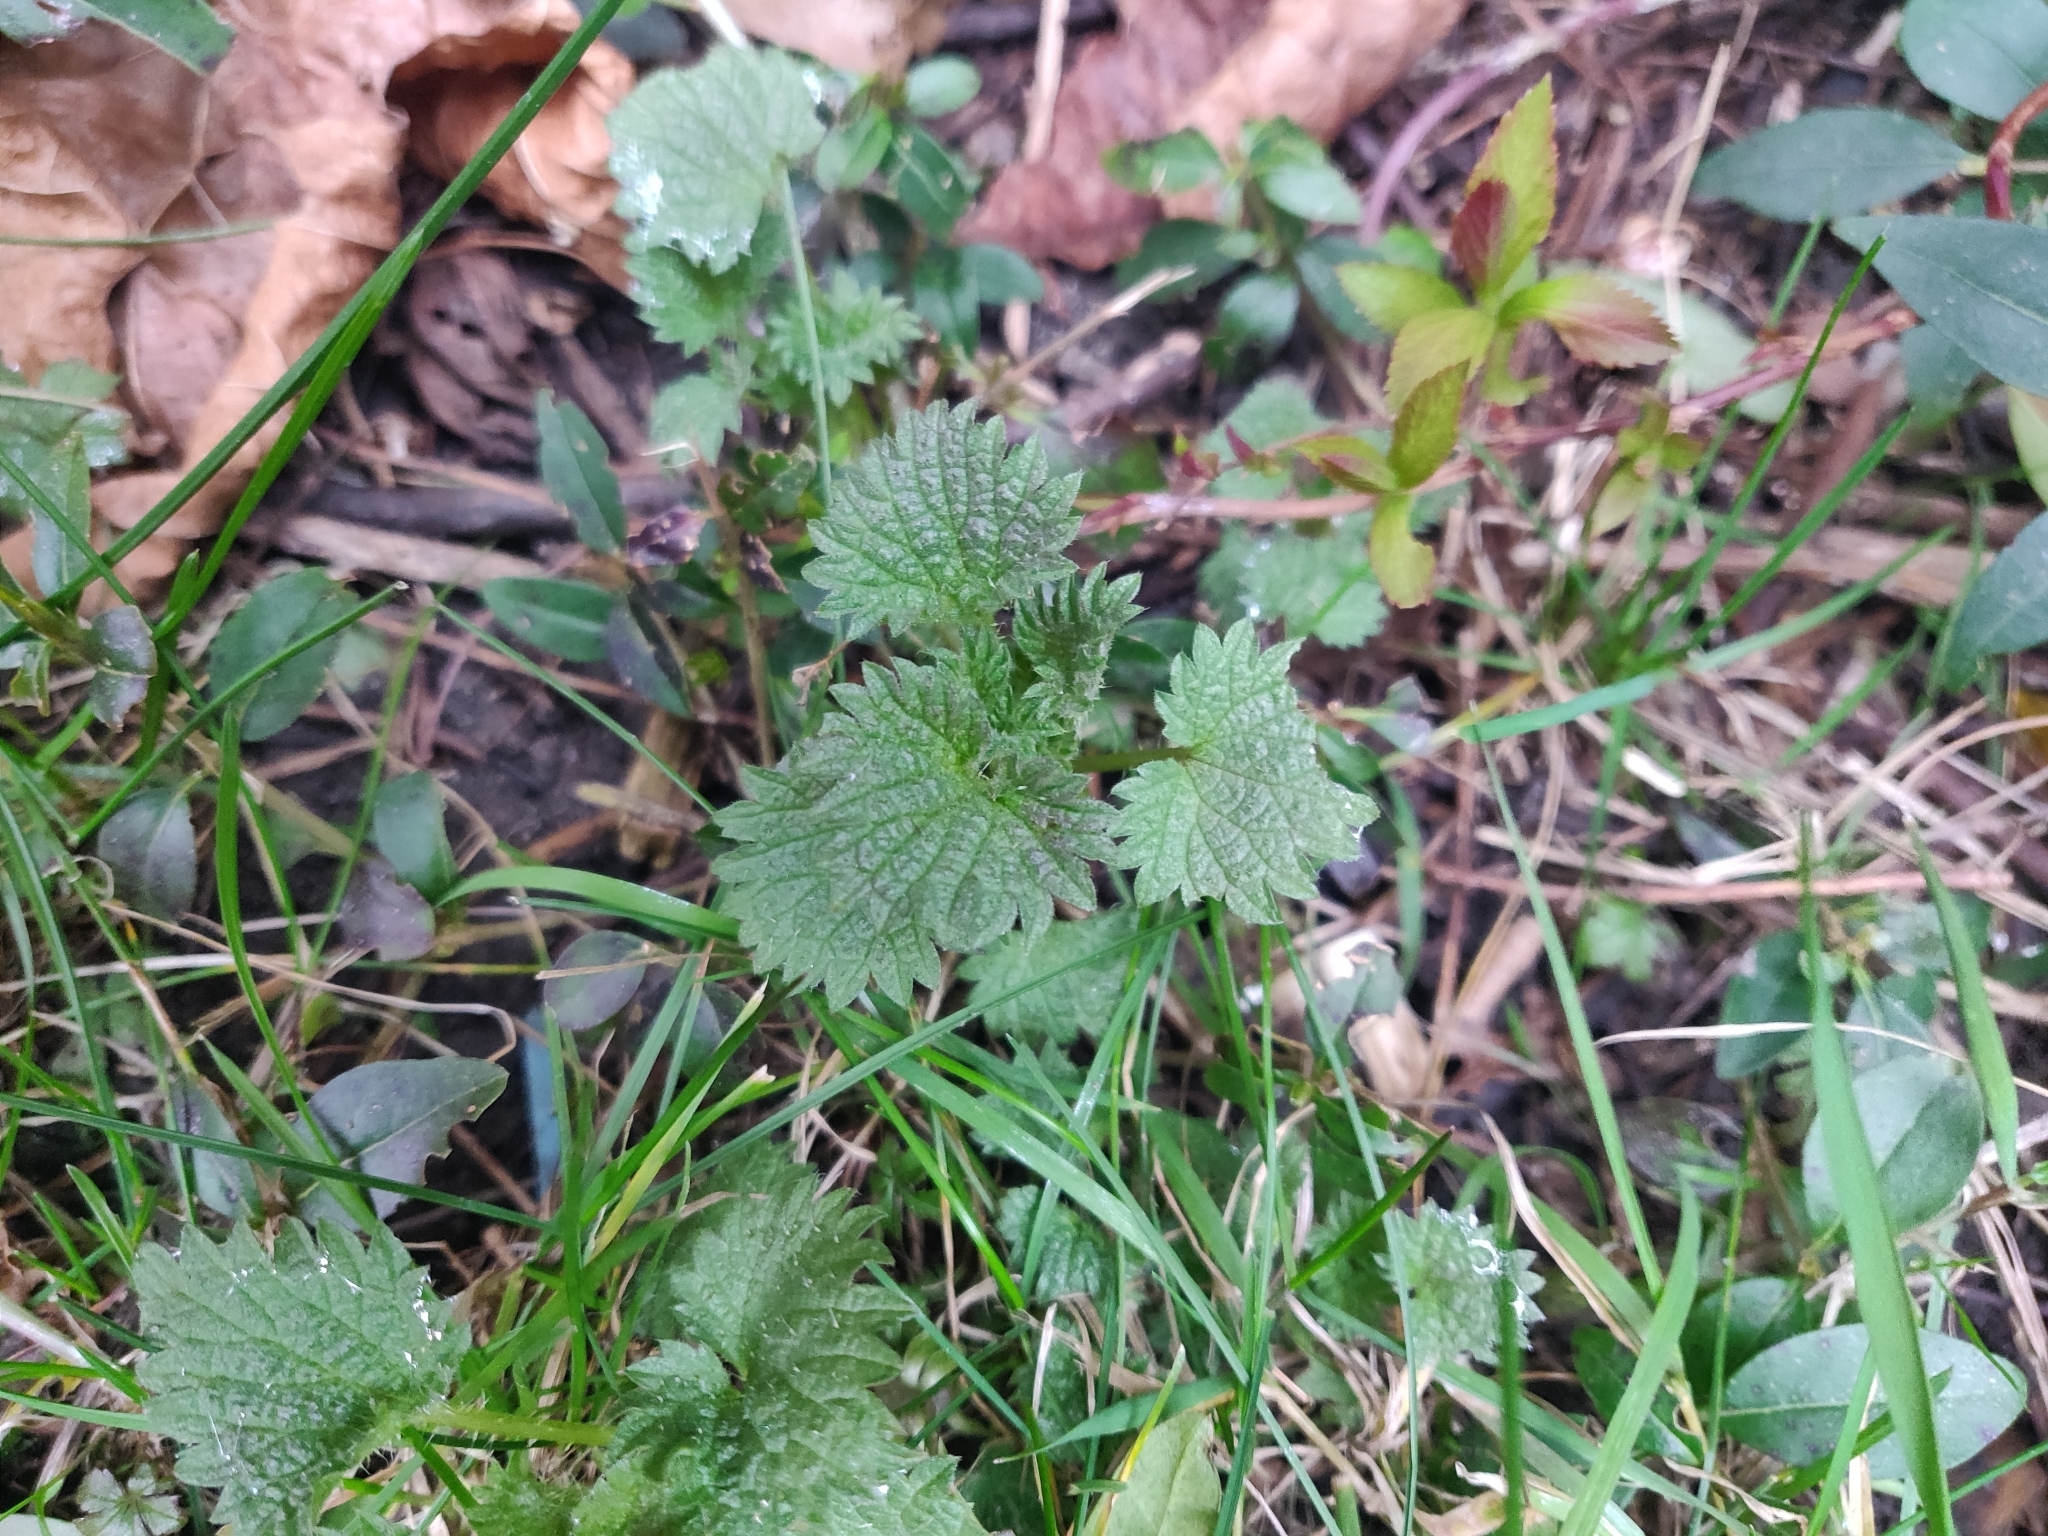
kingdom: Plantae
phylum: Tracheophyta
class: Magnoliopsida
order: Rosales
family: Urticaceae
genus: Urtica
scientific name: Urtica dioica
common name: Common nettle
